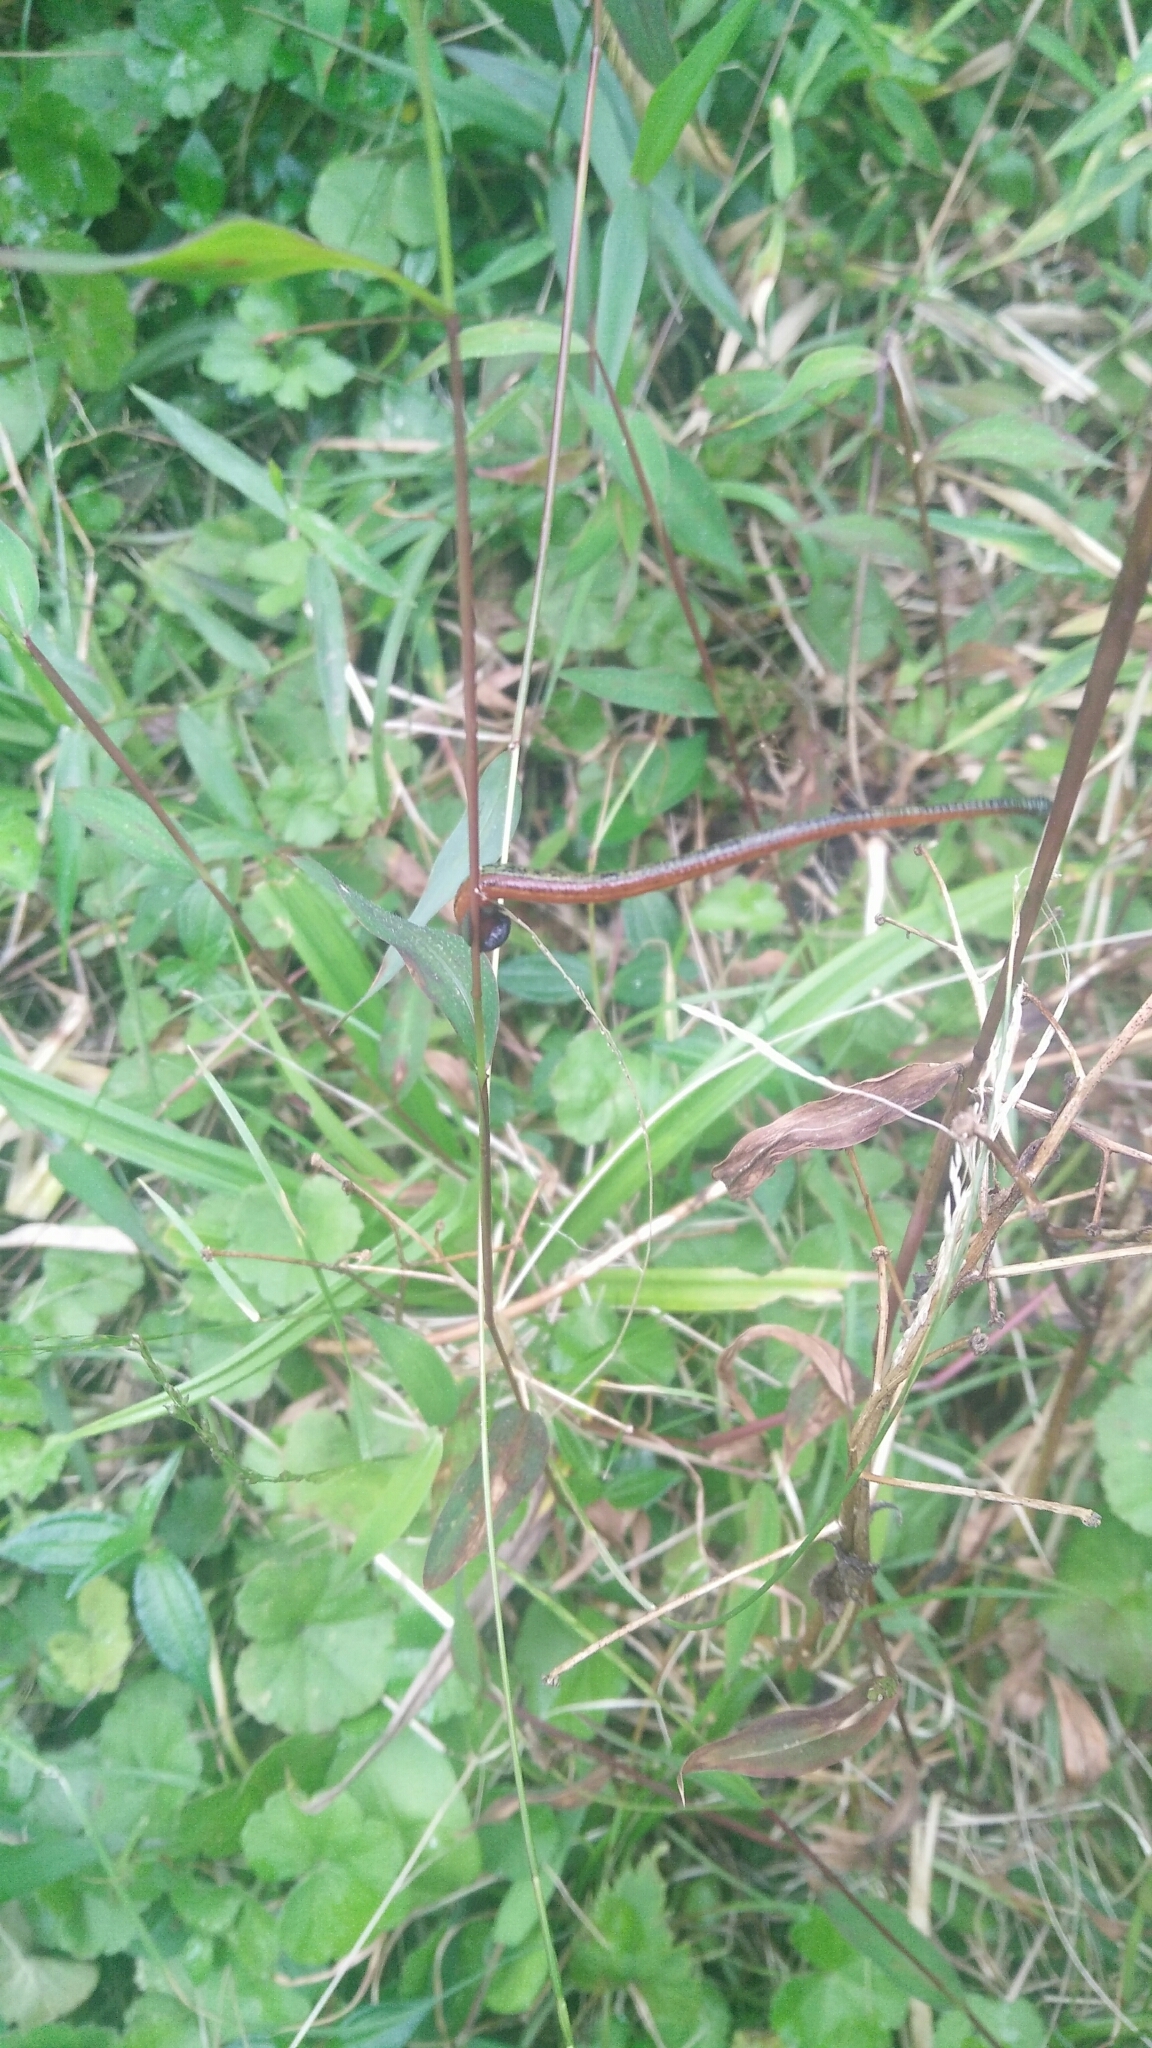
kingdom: Animalia
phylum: Annelida
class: Clitellata
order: Arhynchobdellida
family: Haemadipsidae
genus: Haemadipsa
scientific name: Haemadipsa picta
